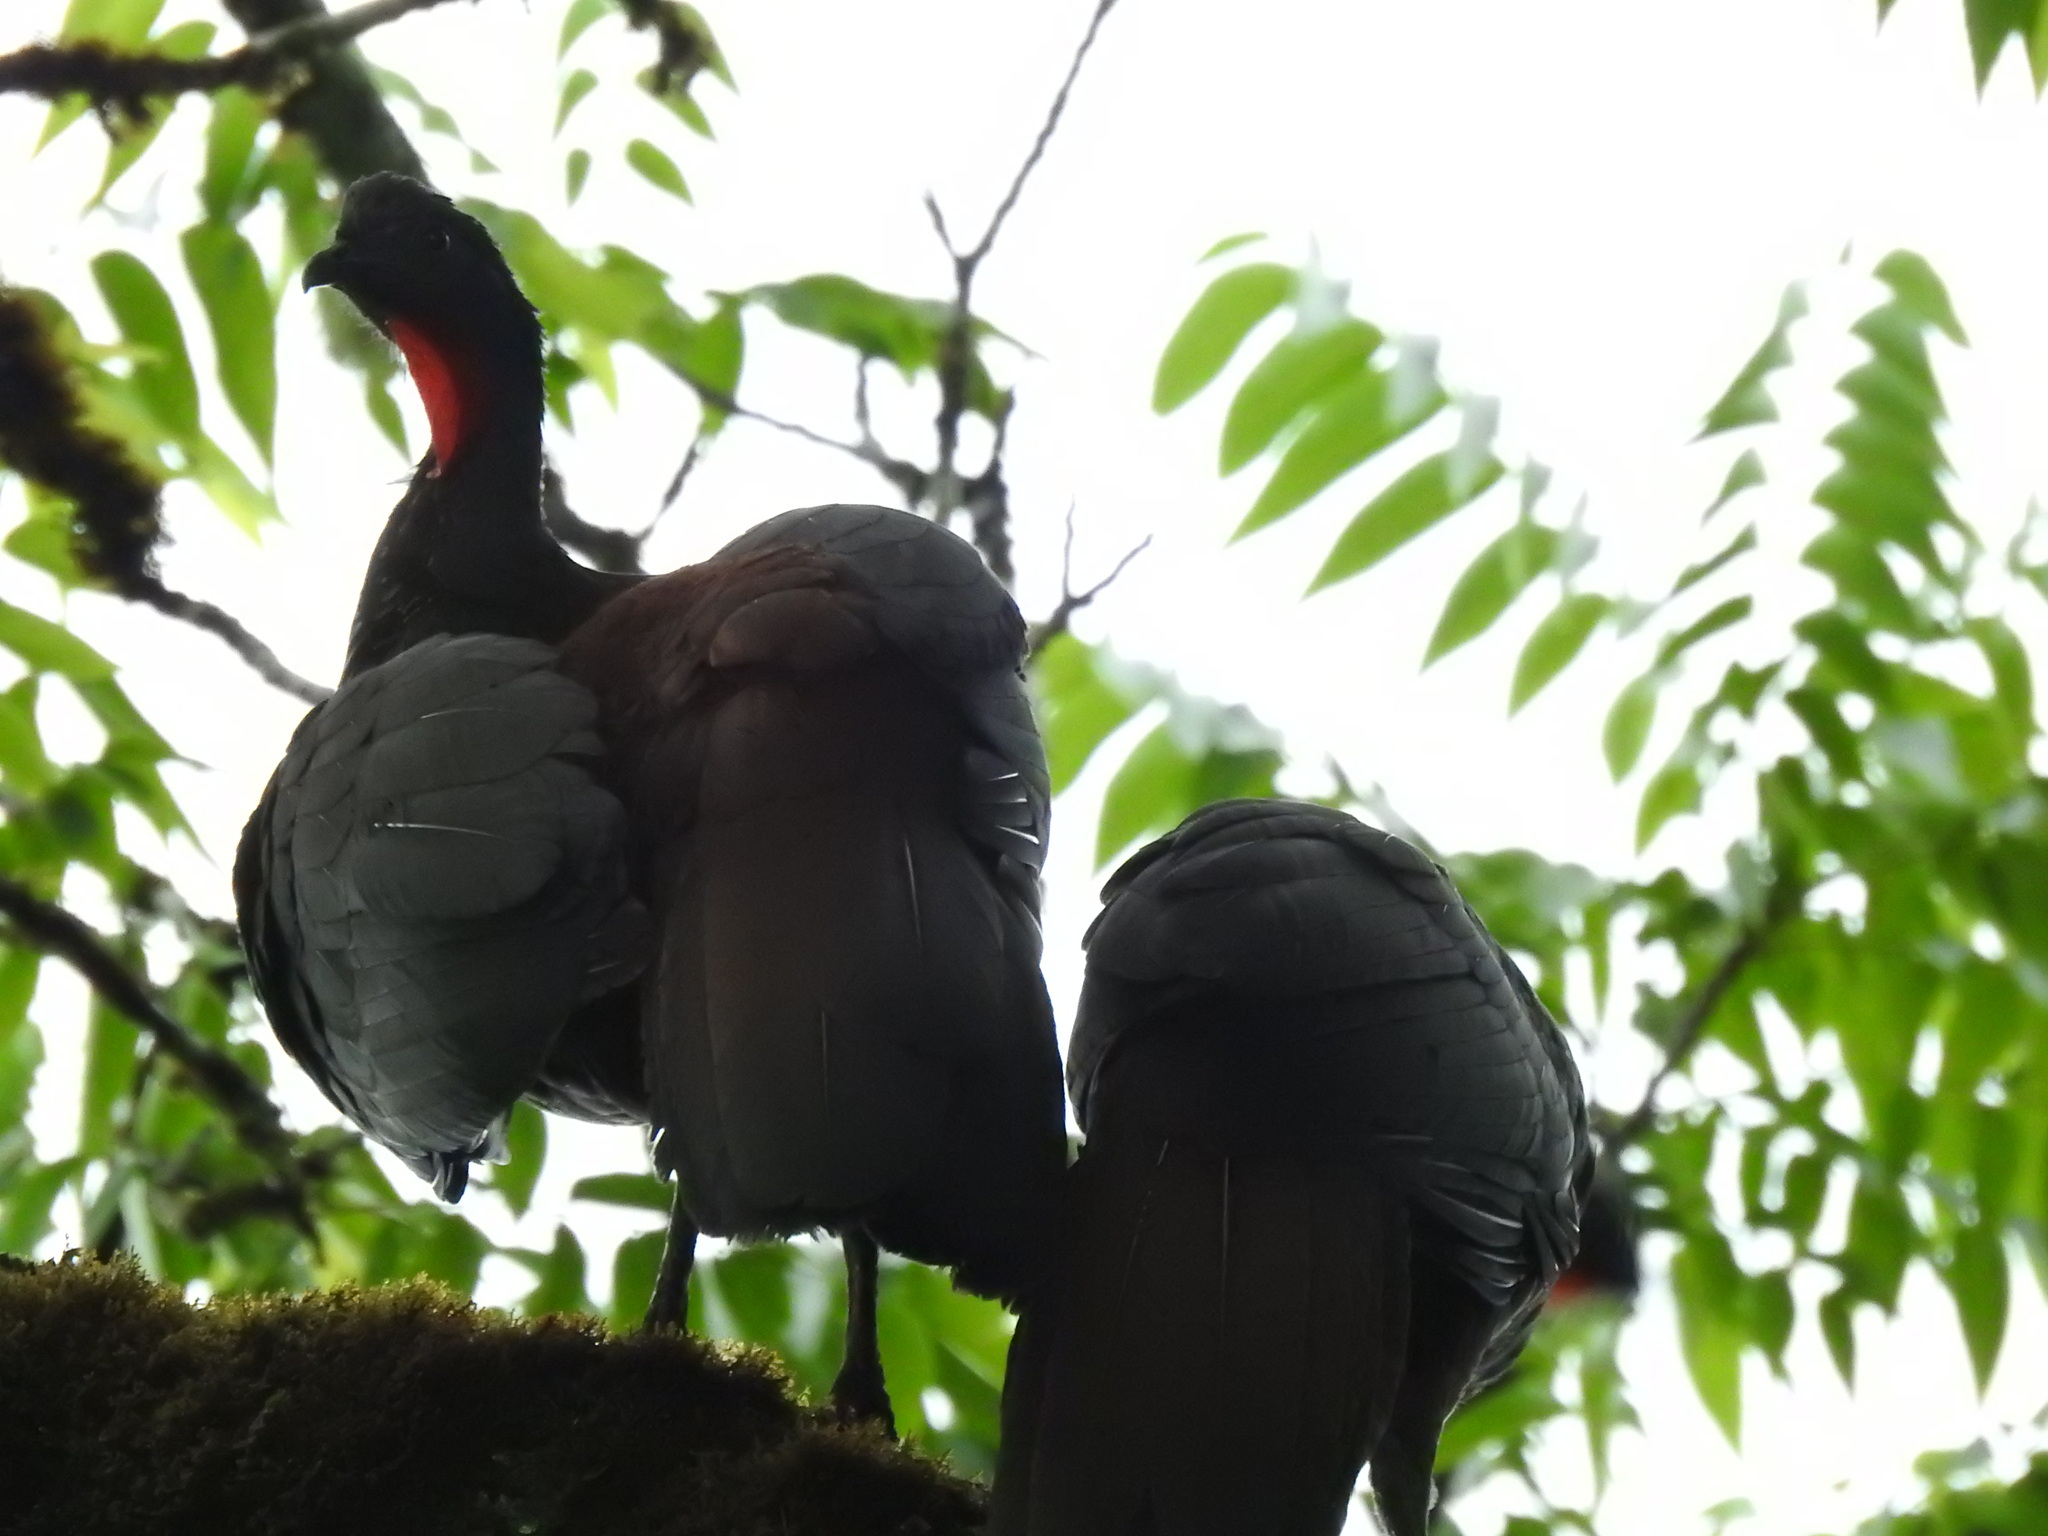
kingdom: Animalia
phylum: Chordata
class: Aves
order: Galliformes
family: Cracidae
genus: Penelope
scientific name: Penelope purpurascens
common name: Crested guan
